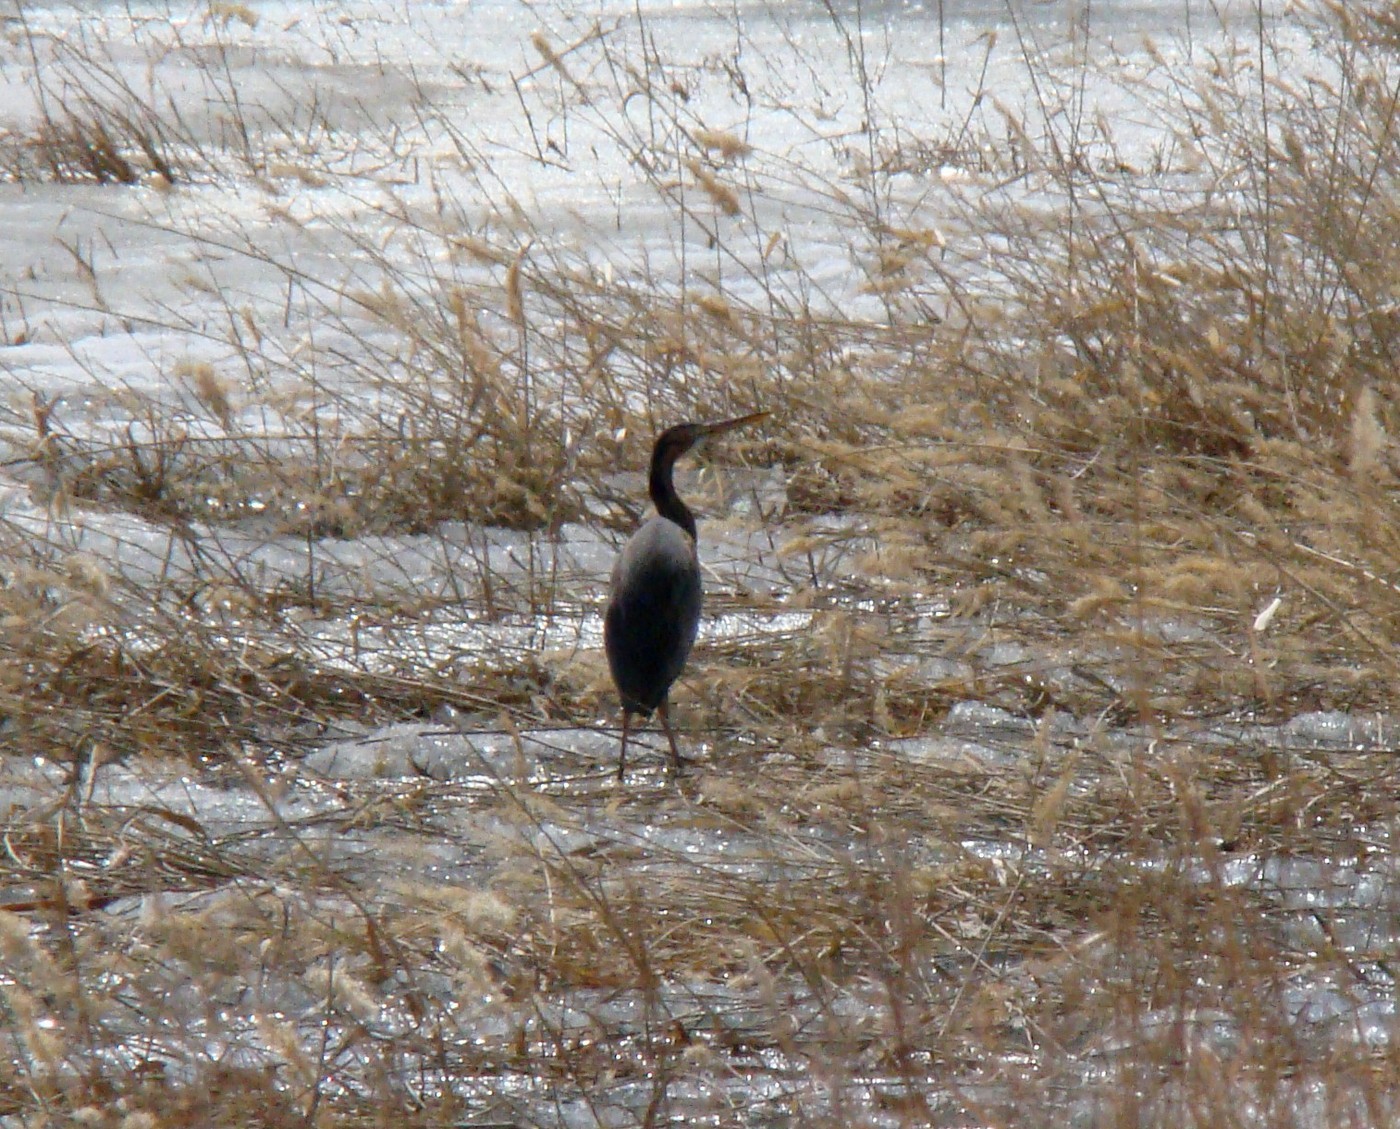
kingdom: Animalia
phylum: Chordata
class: Aves
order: Pelecaniformes
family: Ardeidae
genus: Ardea
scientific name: Ardea purpurea
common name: Purple heron
